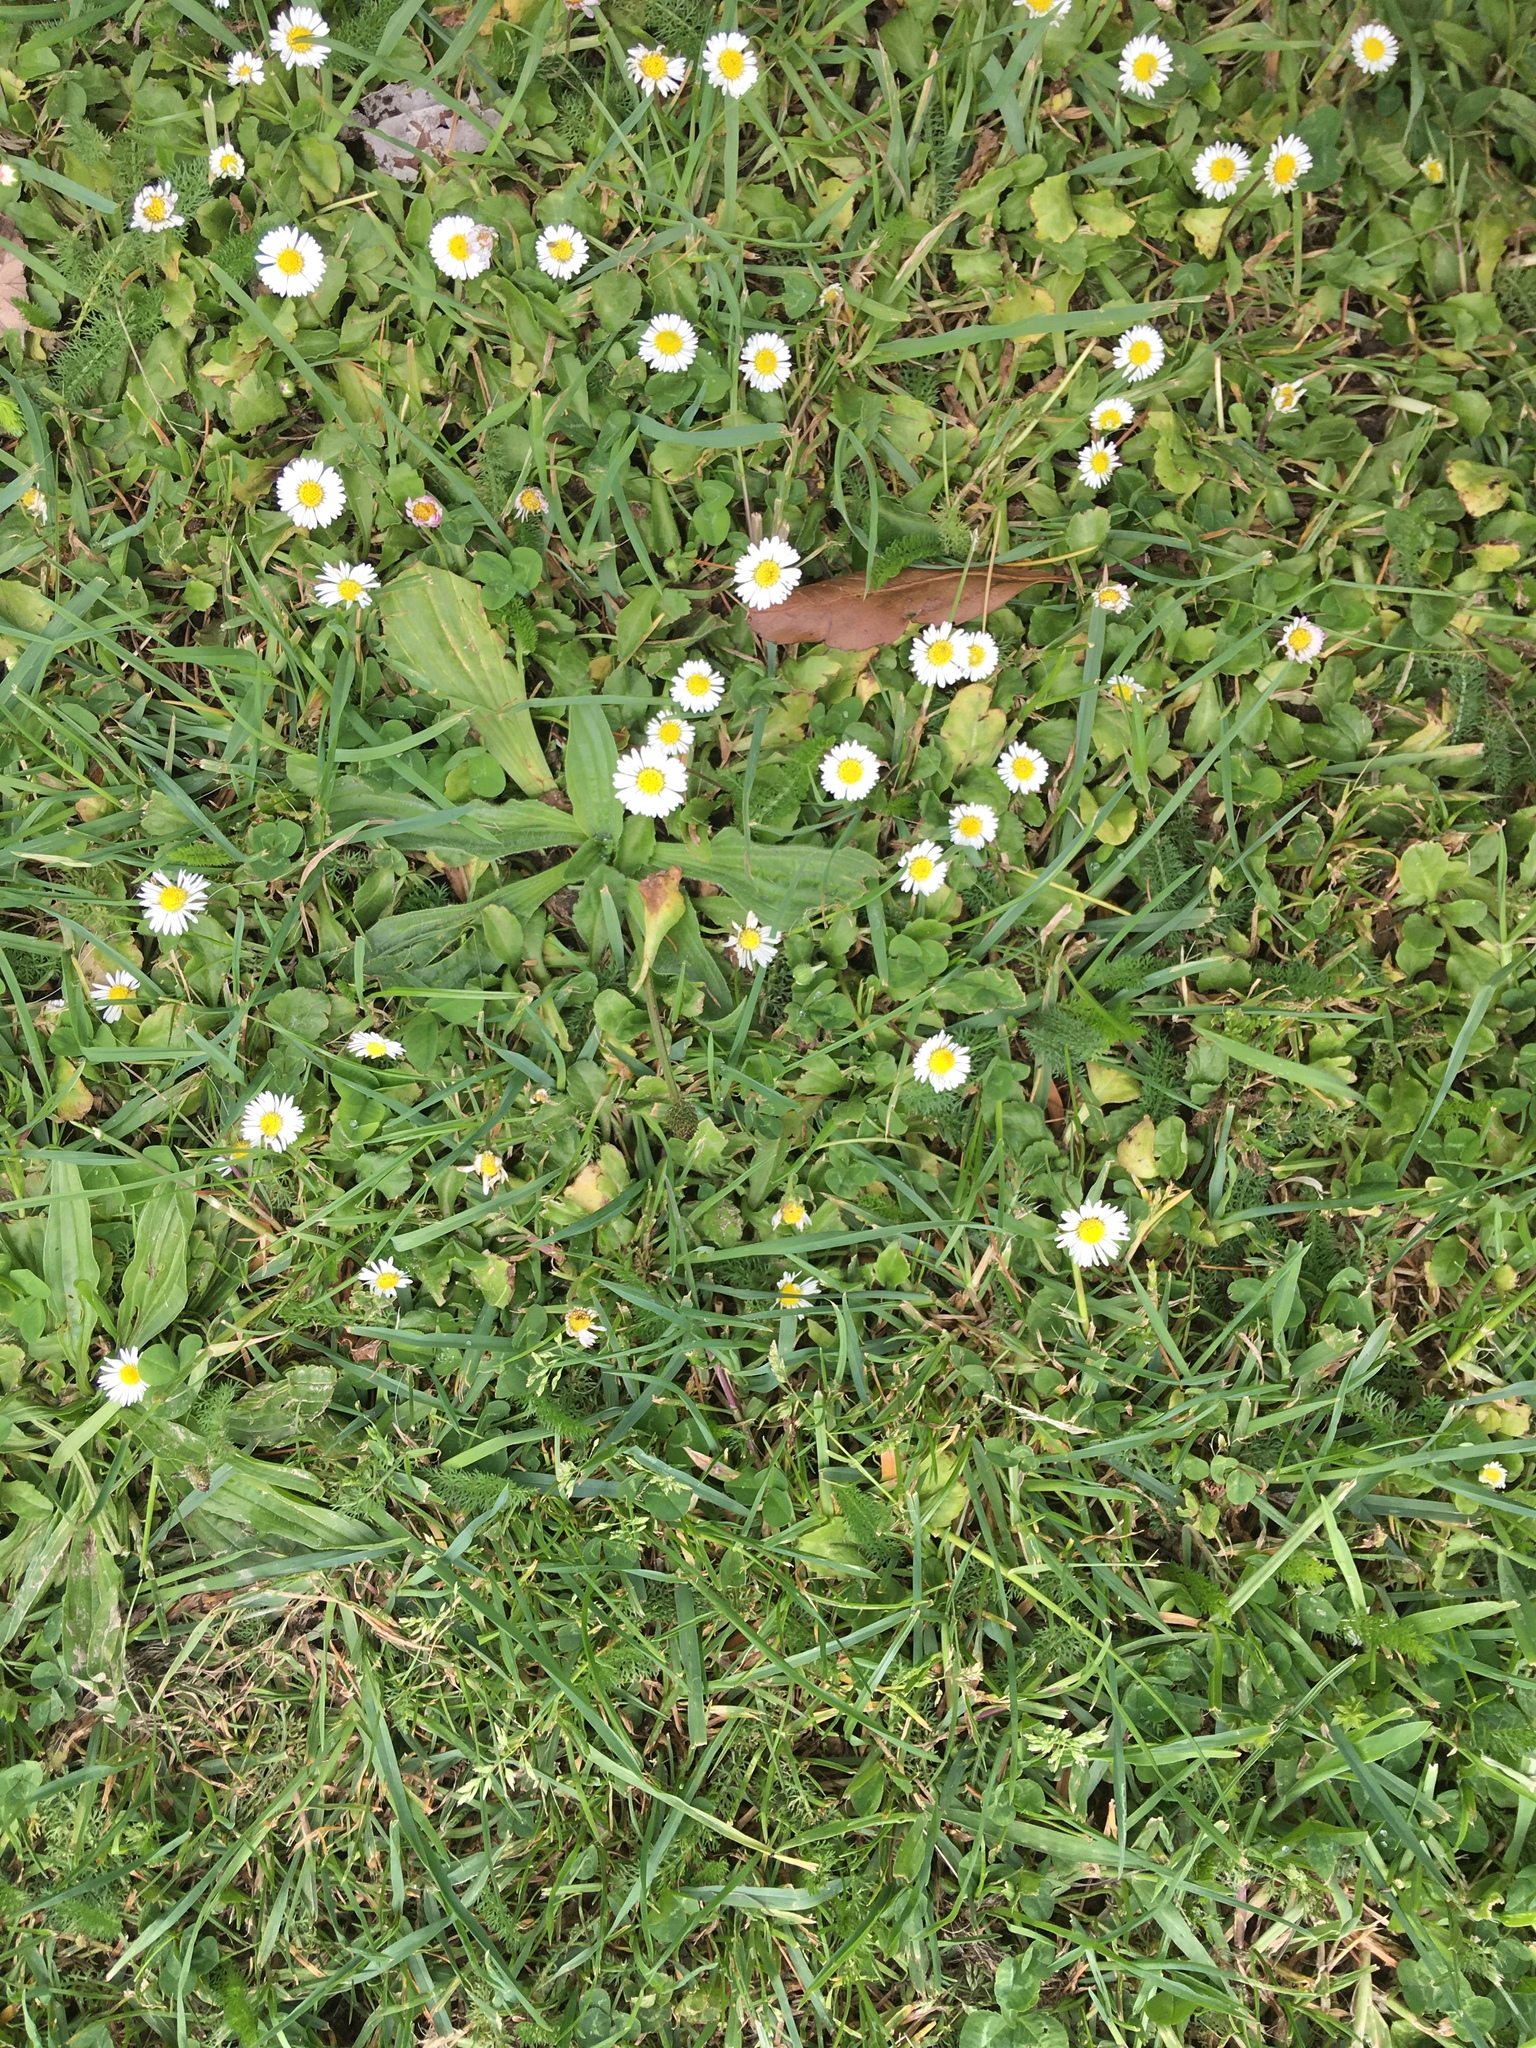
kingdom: Plantae
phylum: Tracheophyta
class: Magnoliopsida
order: Asterales
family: Asteraceae
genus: Bellis
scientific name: Bellis perennis
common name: Lawndaisy
